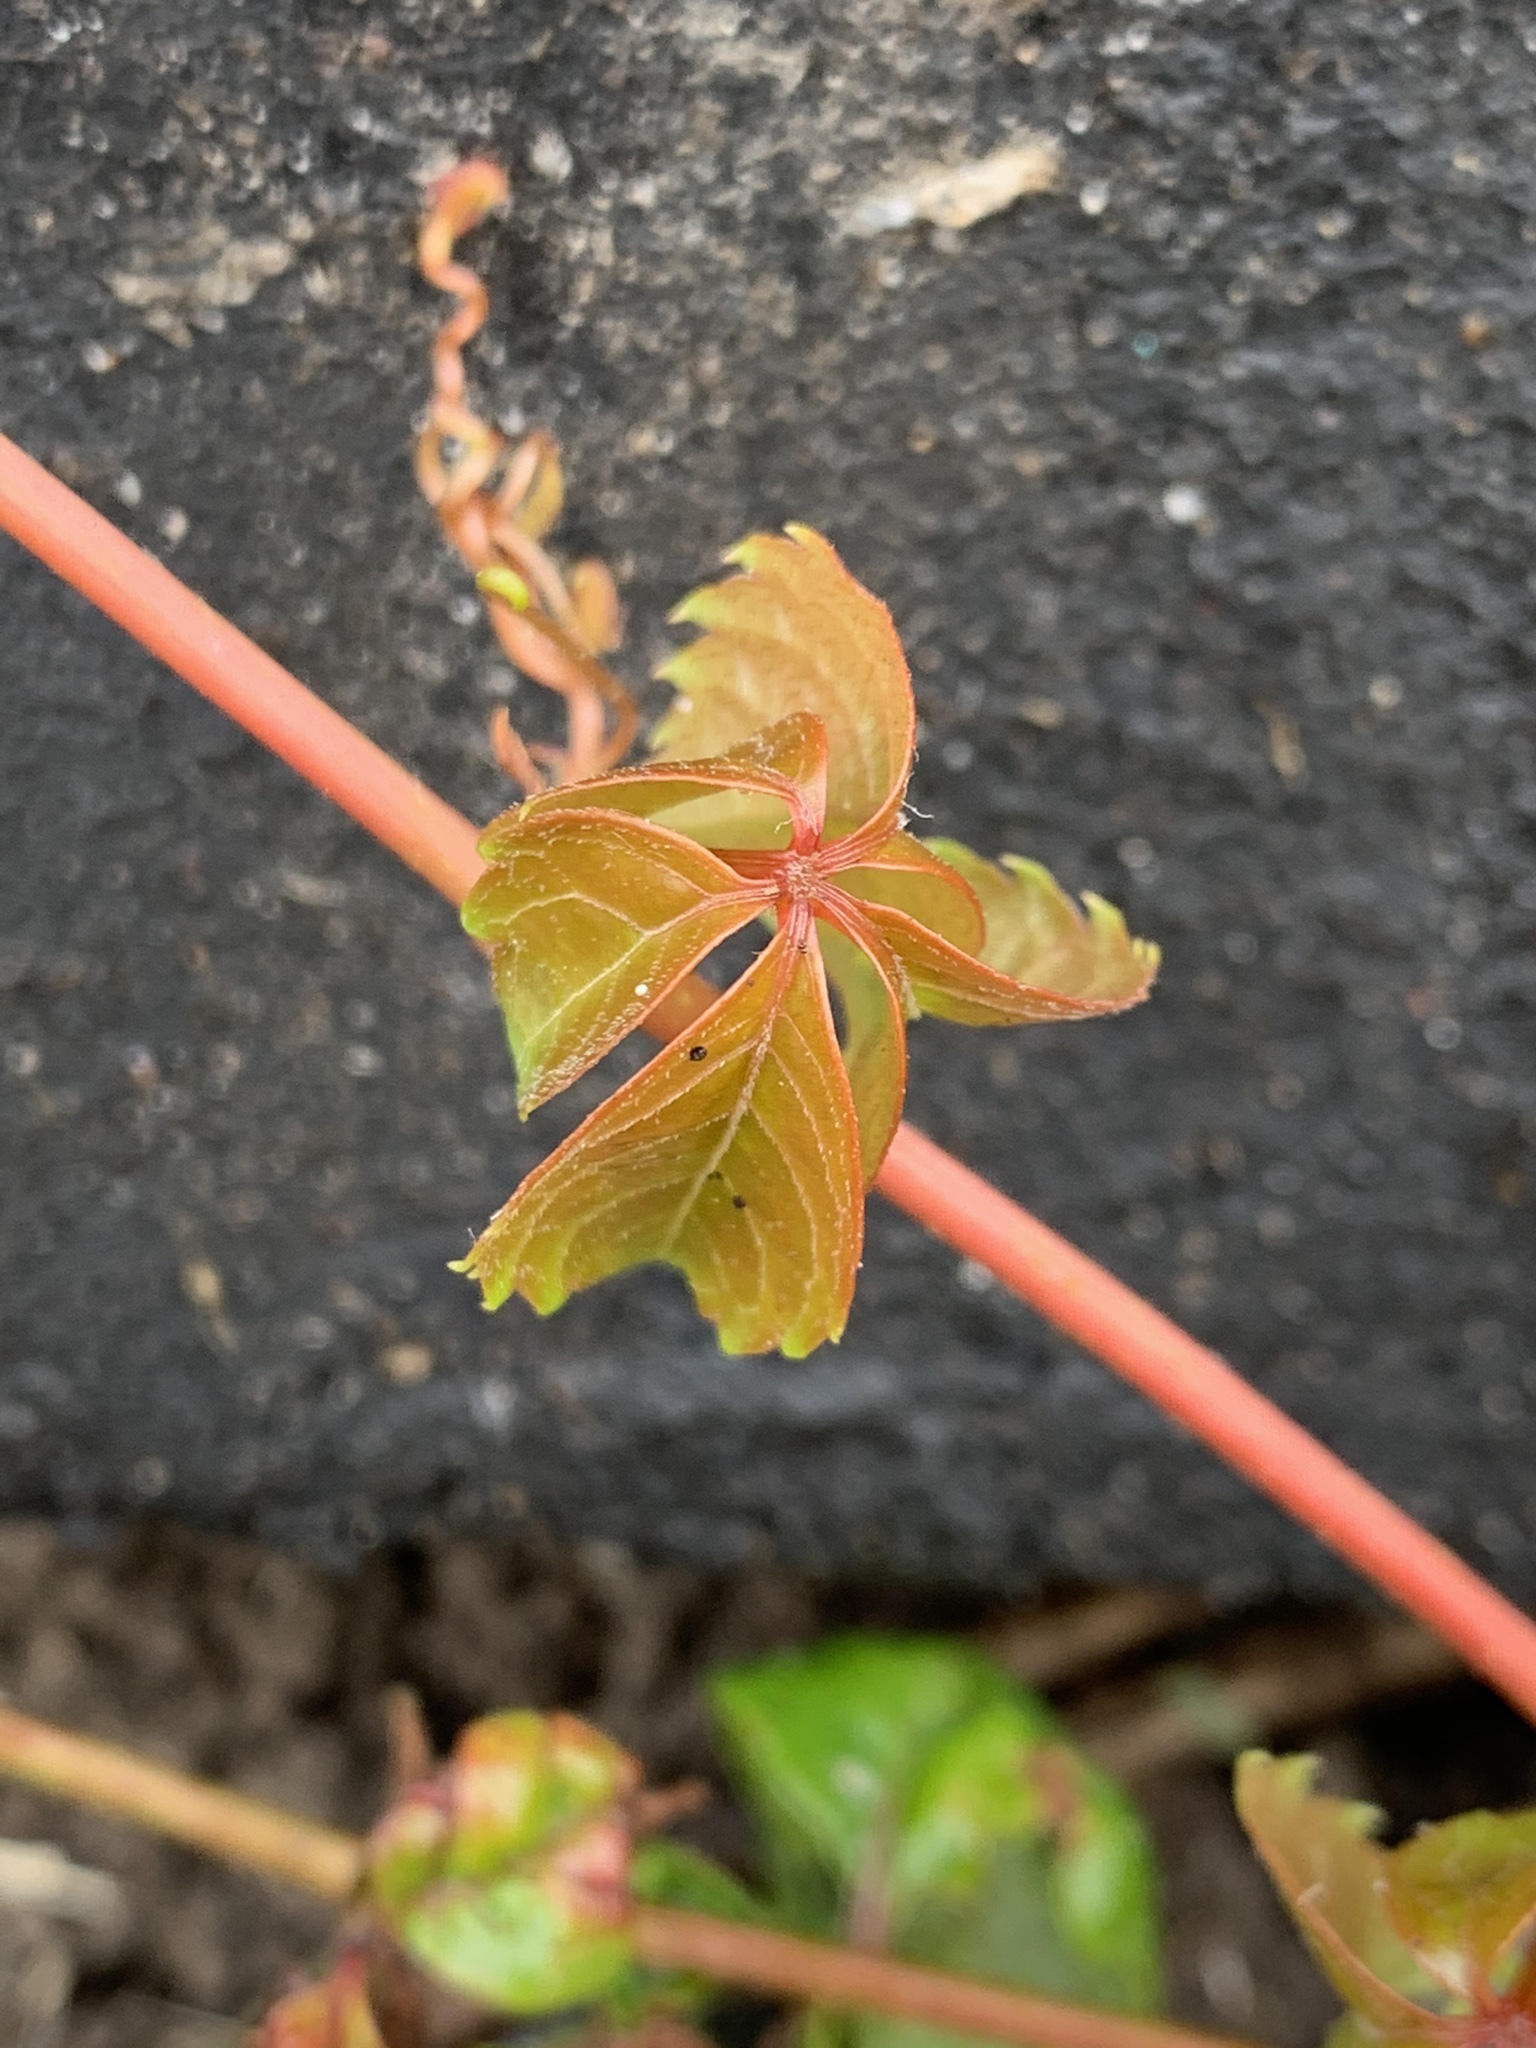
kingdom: Plantae
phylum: Tracheophyta
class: Magnoliopsida
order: Vitales
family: Vitaceae
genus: Parthenocissus
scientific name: Parthenocissus quinquefolia
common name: Virginia-creeper
